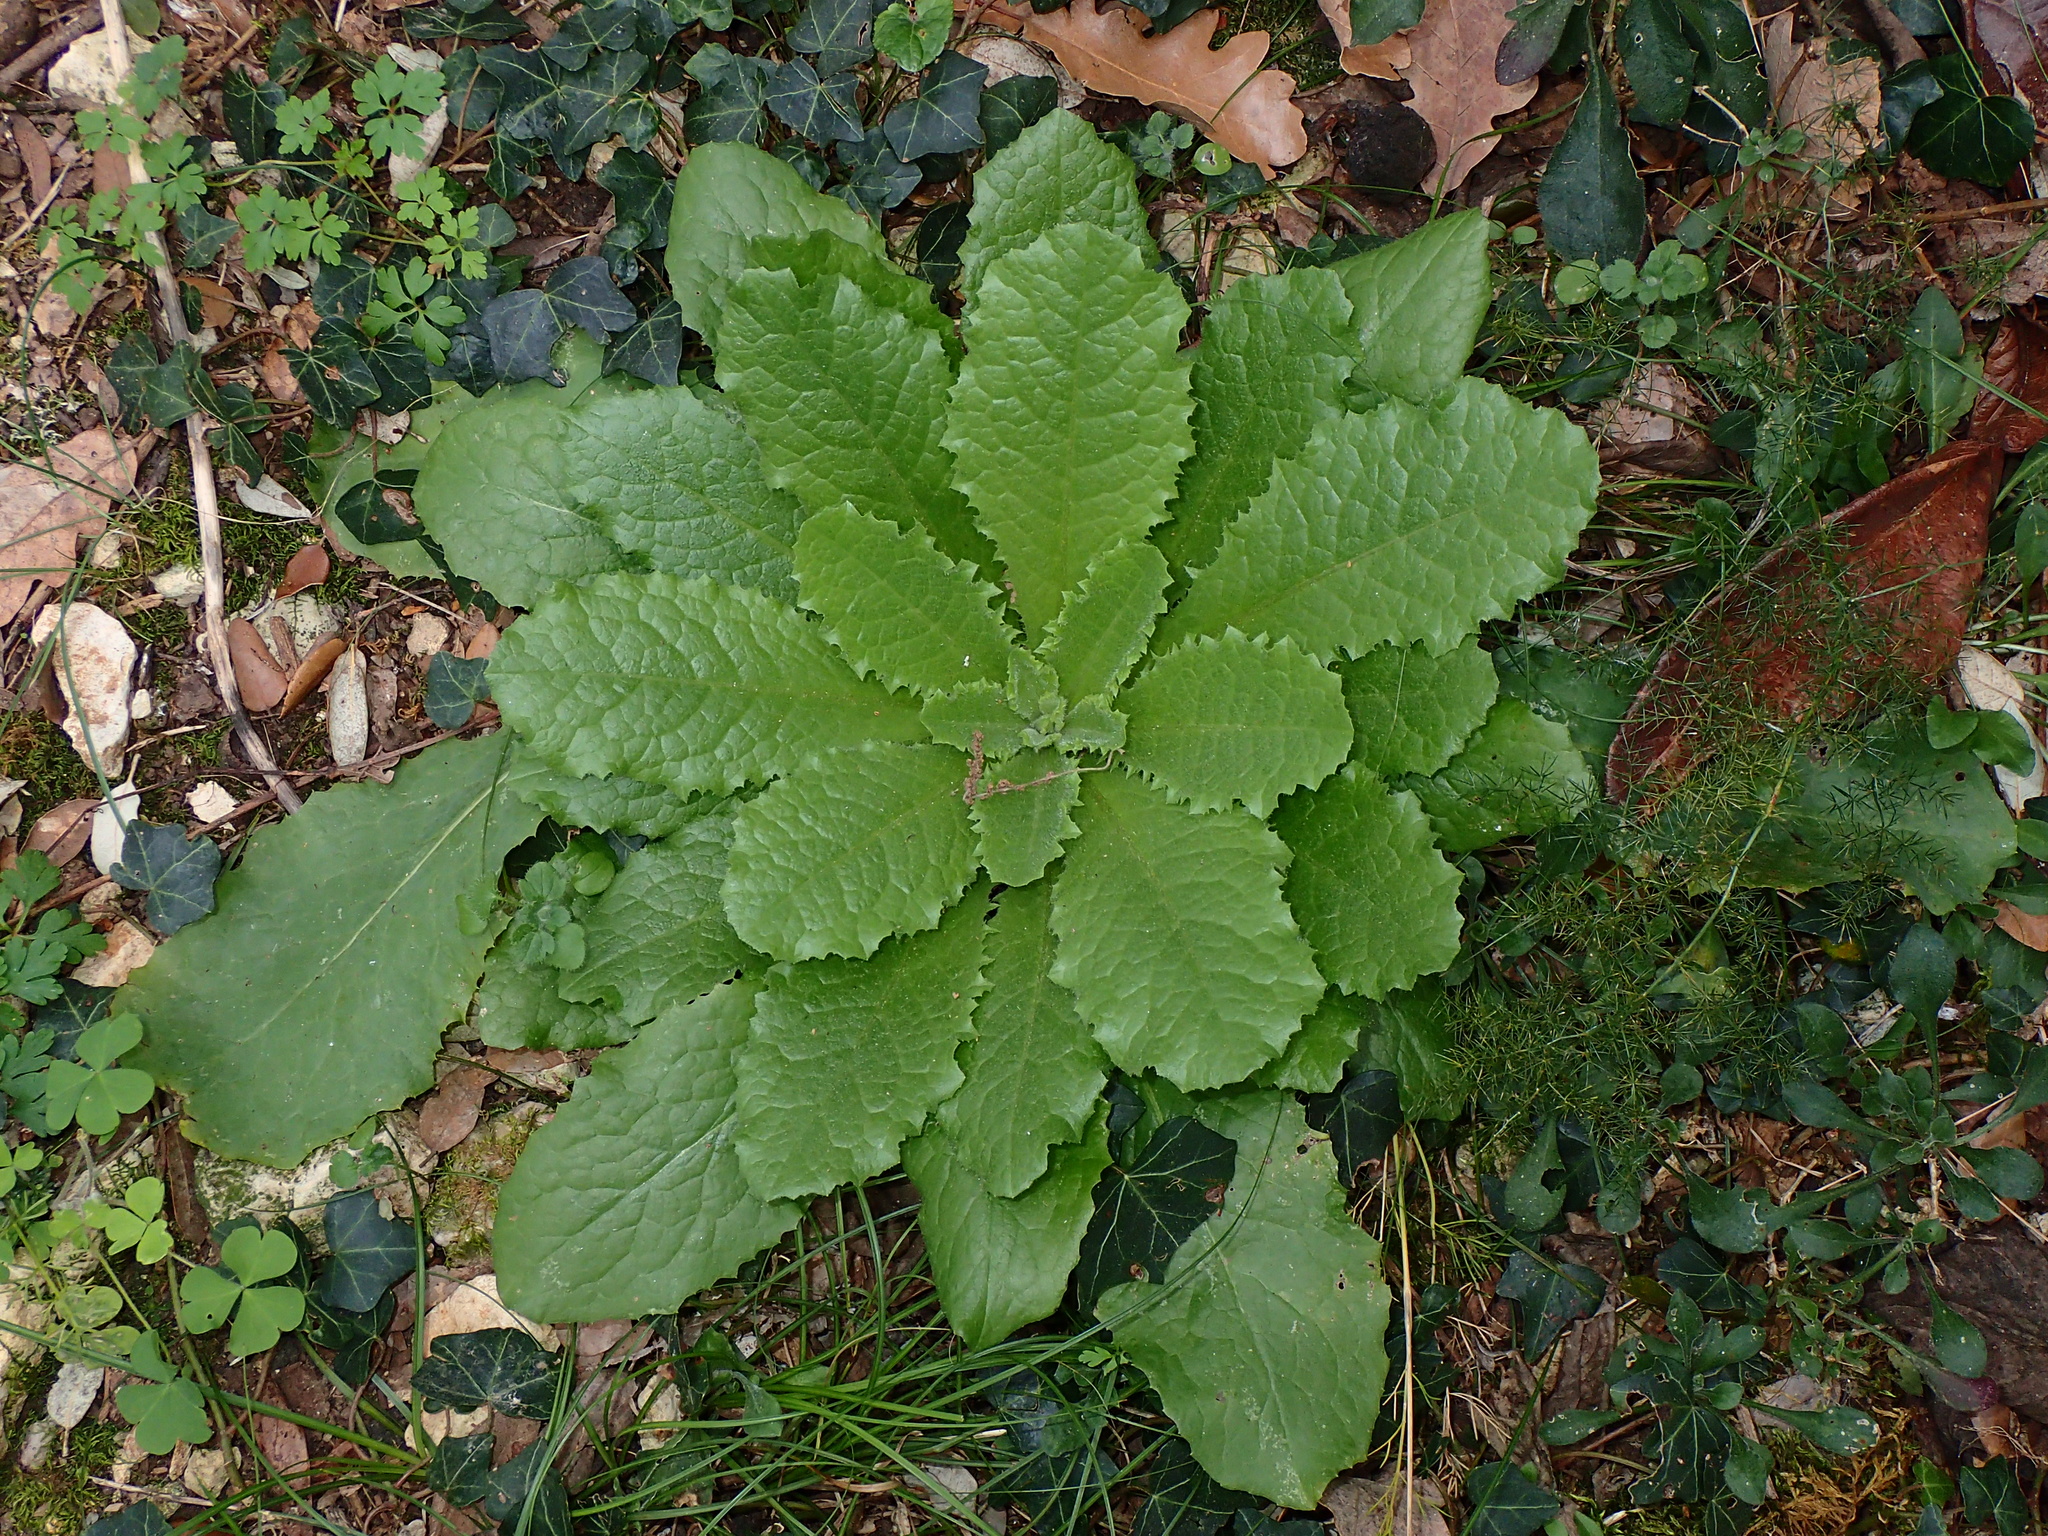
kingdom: Plantae
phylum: Tracheophyta
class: Magnoliopsida
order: Asterales
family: Asteraceae
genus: Lactuca
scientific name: Lactuca virosa
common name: Great lettuce
